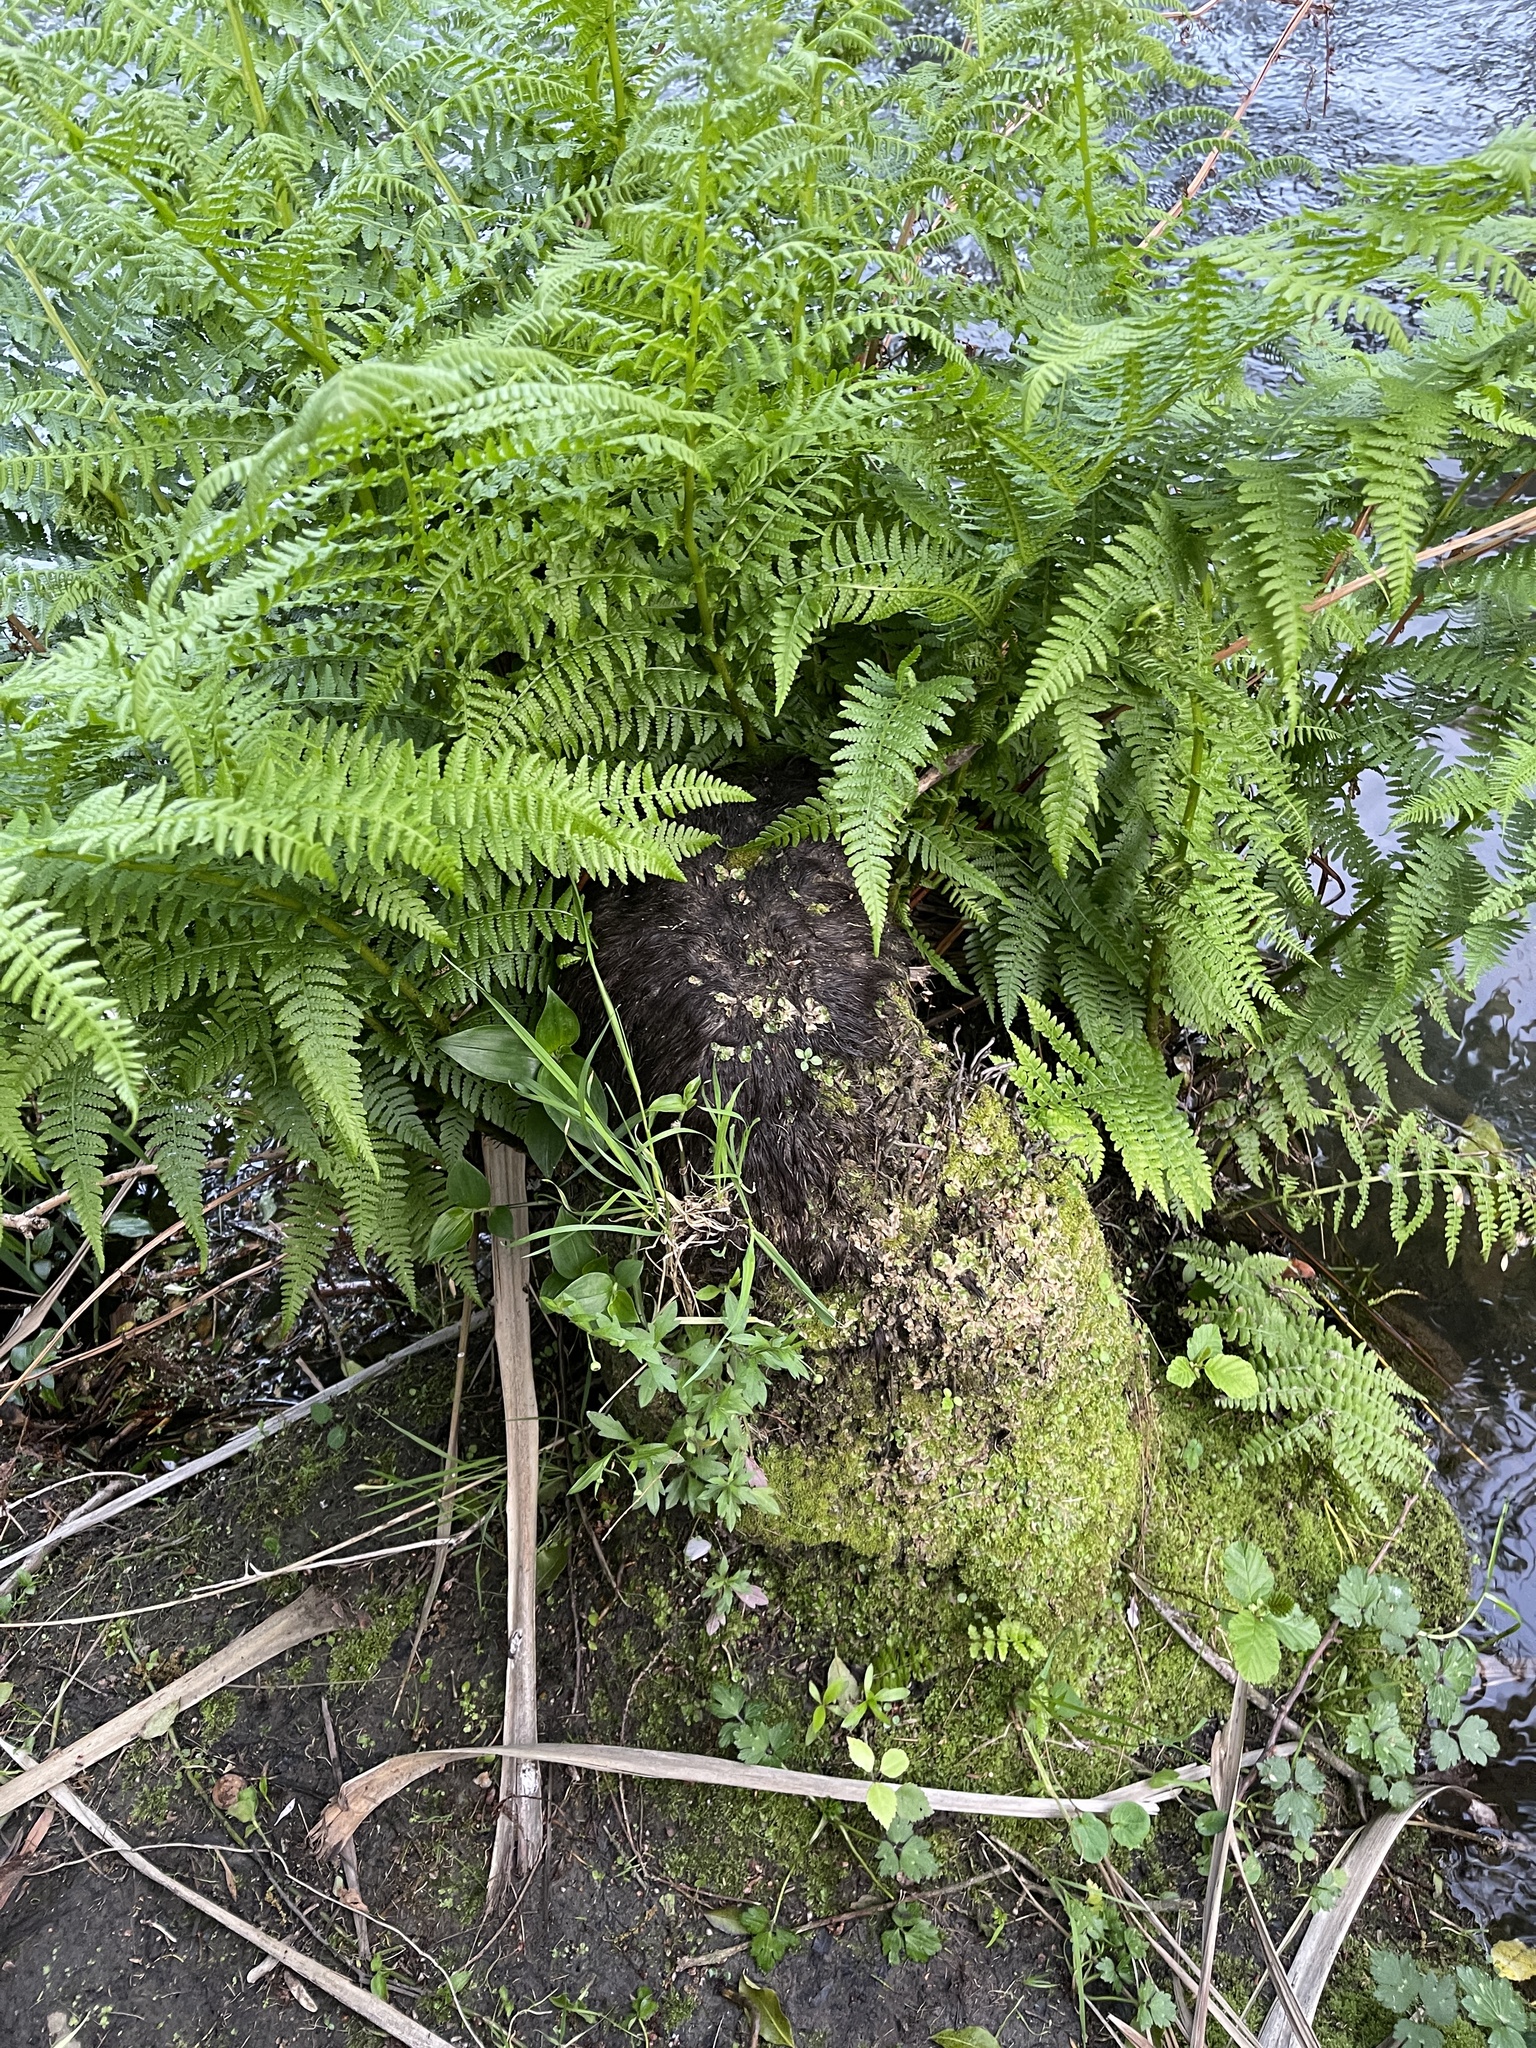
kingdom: Plantae
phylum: Tracheophyta
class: Polypodiopsida
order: Polypodiales
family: Dennstaedtiaceae
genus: Hypolepis
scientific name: Hypolepis ambigua
